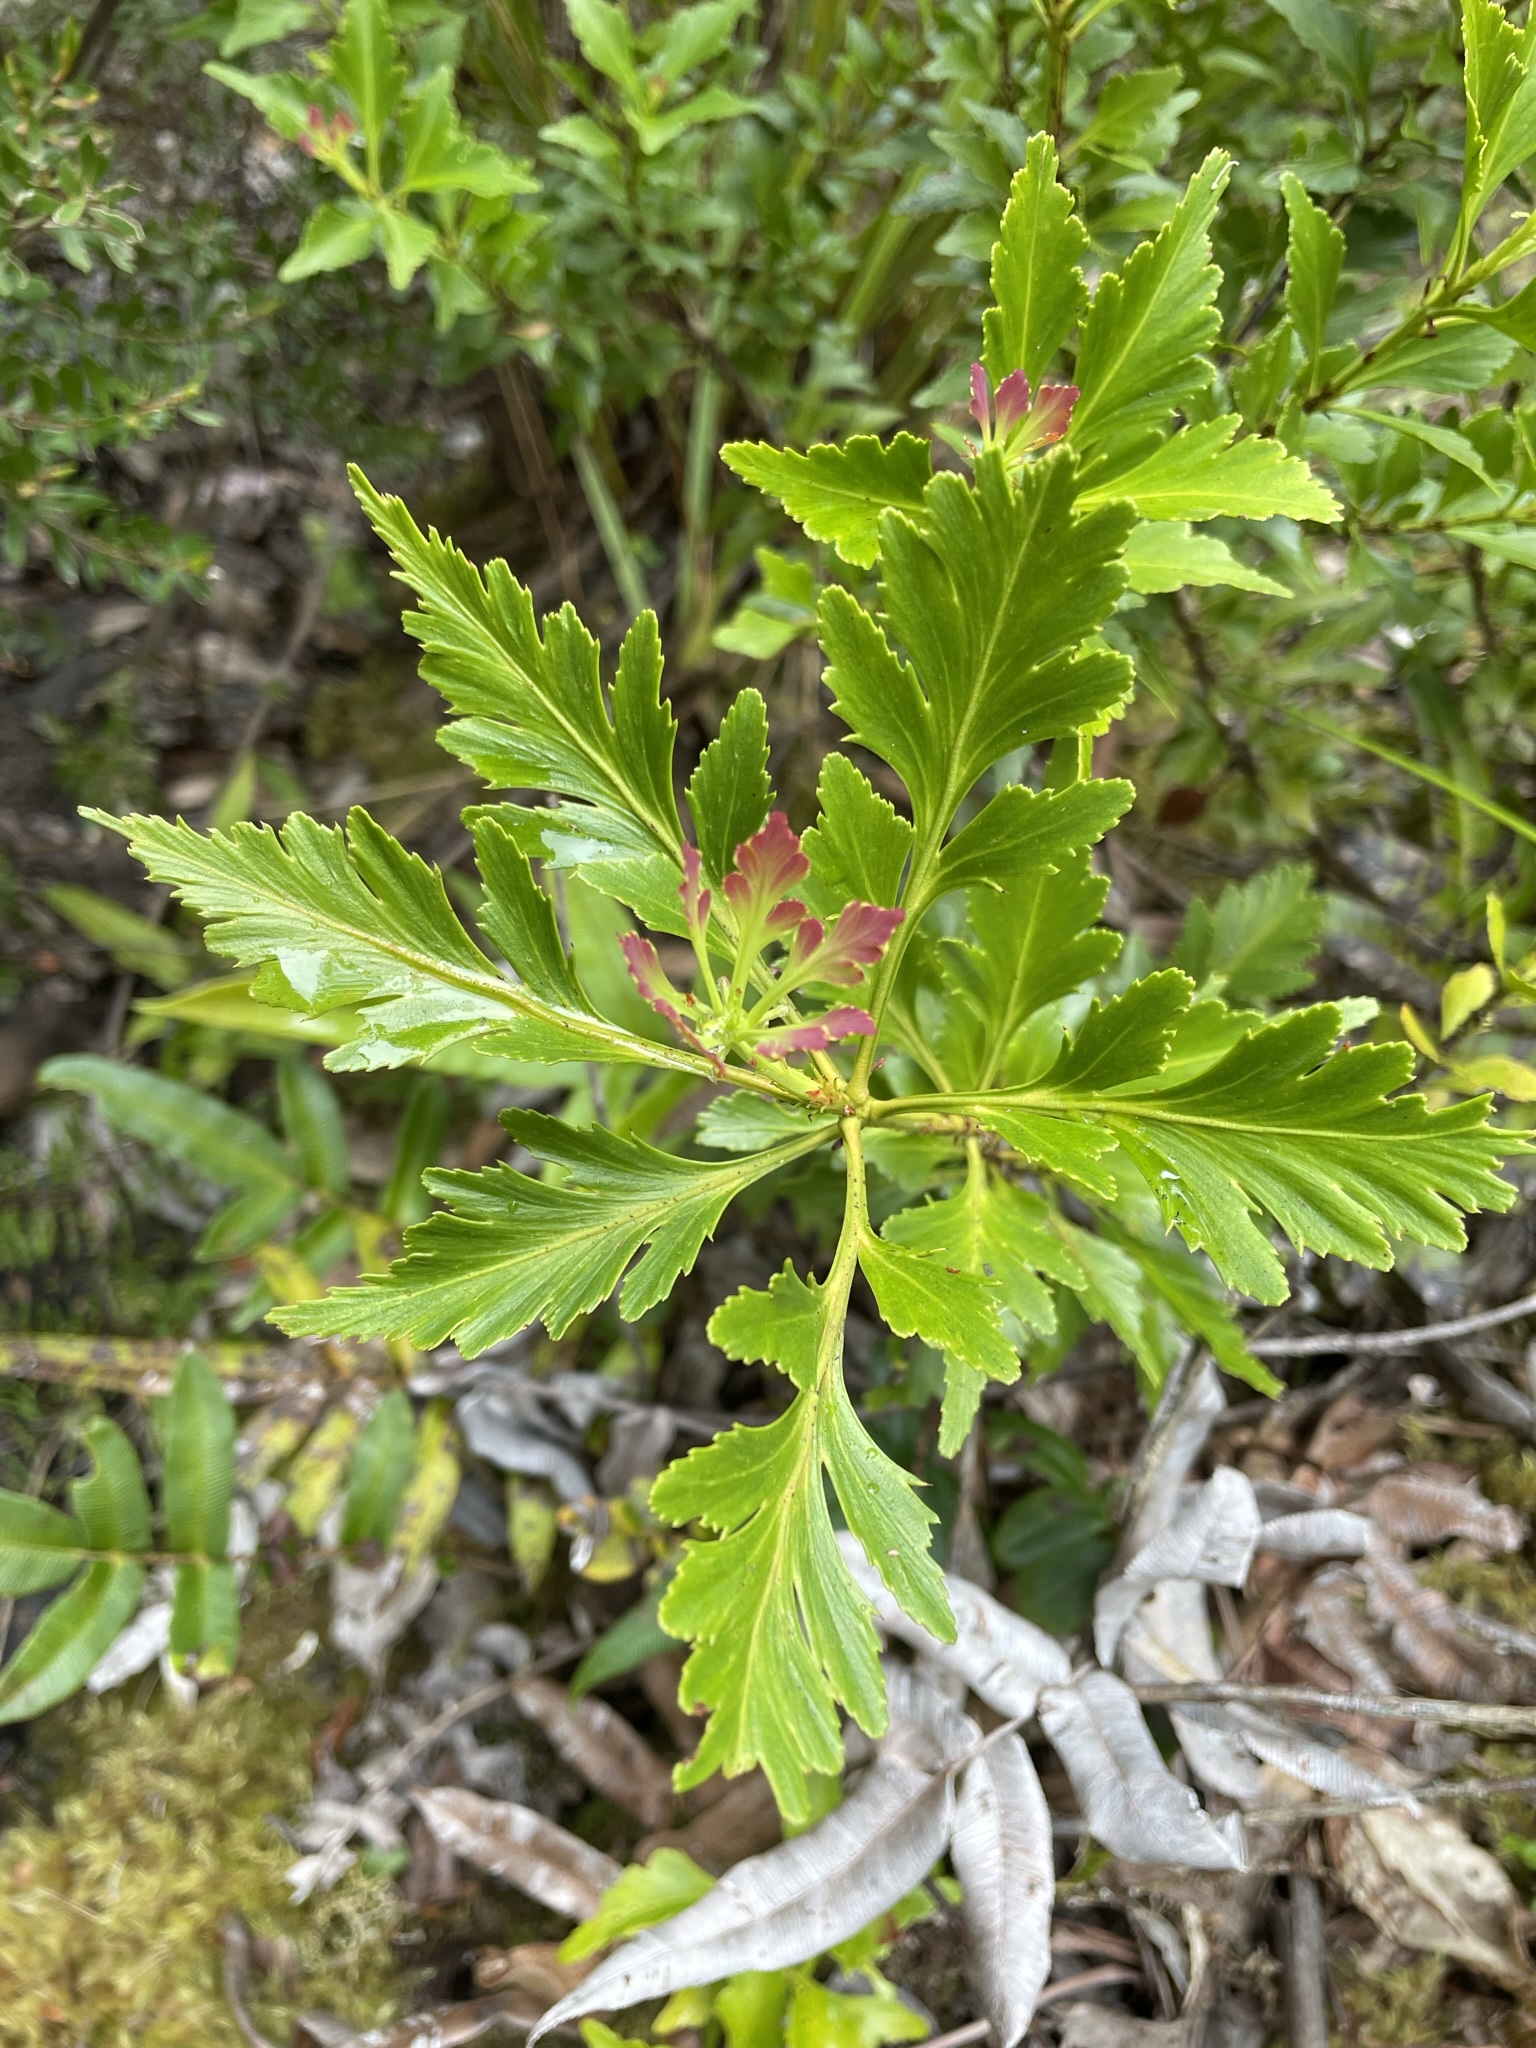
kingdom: Plantae
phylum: Tracheophyta
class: Pinopsida
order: Pinales
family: Phyllocladaceae
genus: Phyllocladus
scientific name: Phyllocladus aspleniifolius
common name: Celery-top pine
